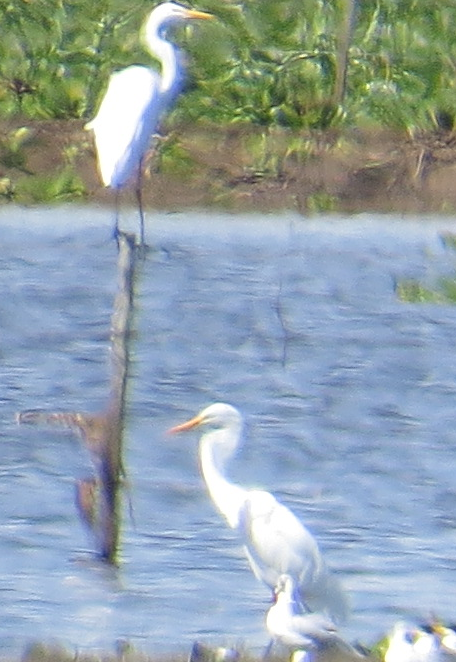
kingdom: Animalia
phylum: Chordata
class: Aves
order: Pelecaniformes
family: Ardeidae
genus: Ardea
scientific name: Ardea alba
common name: Great egret
